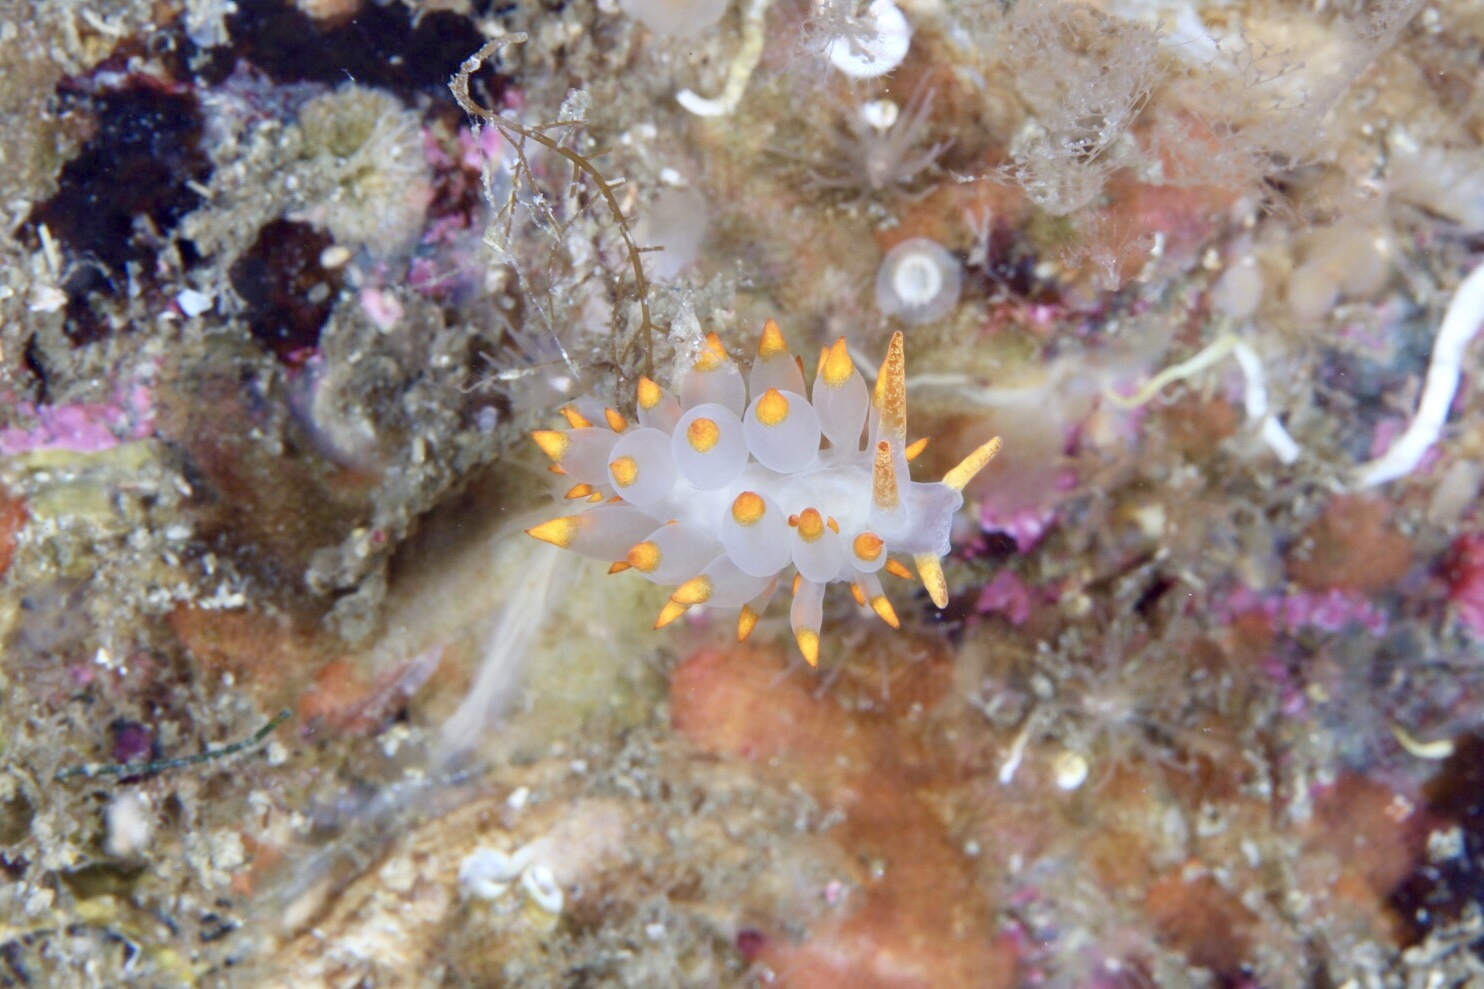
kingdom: Animalia
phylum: Mollusca
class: Gastropoda
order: Nudibranchia
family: Eubranchidae
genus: Amphorina
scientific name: Amphorina farrani
